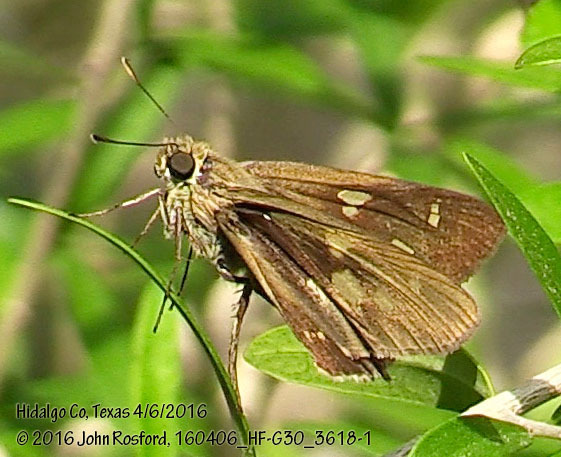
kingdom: Animalia
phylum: Arthropoda
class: Insecta
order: Lepidoptera
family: Hesperiidae
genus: Niconiades
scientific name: Niconiades nikko
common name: Nikko skipper
